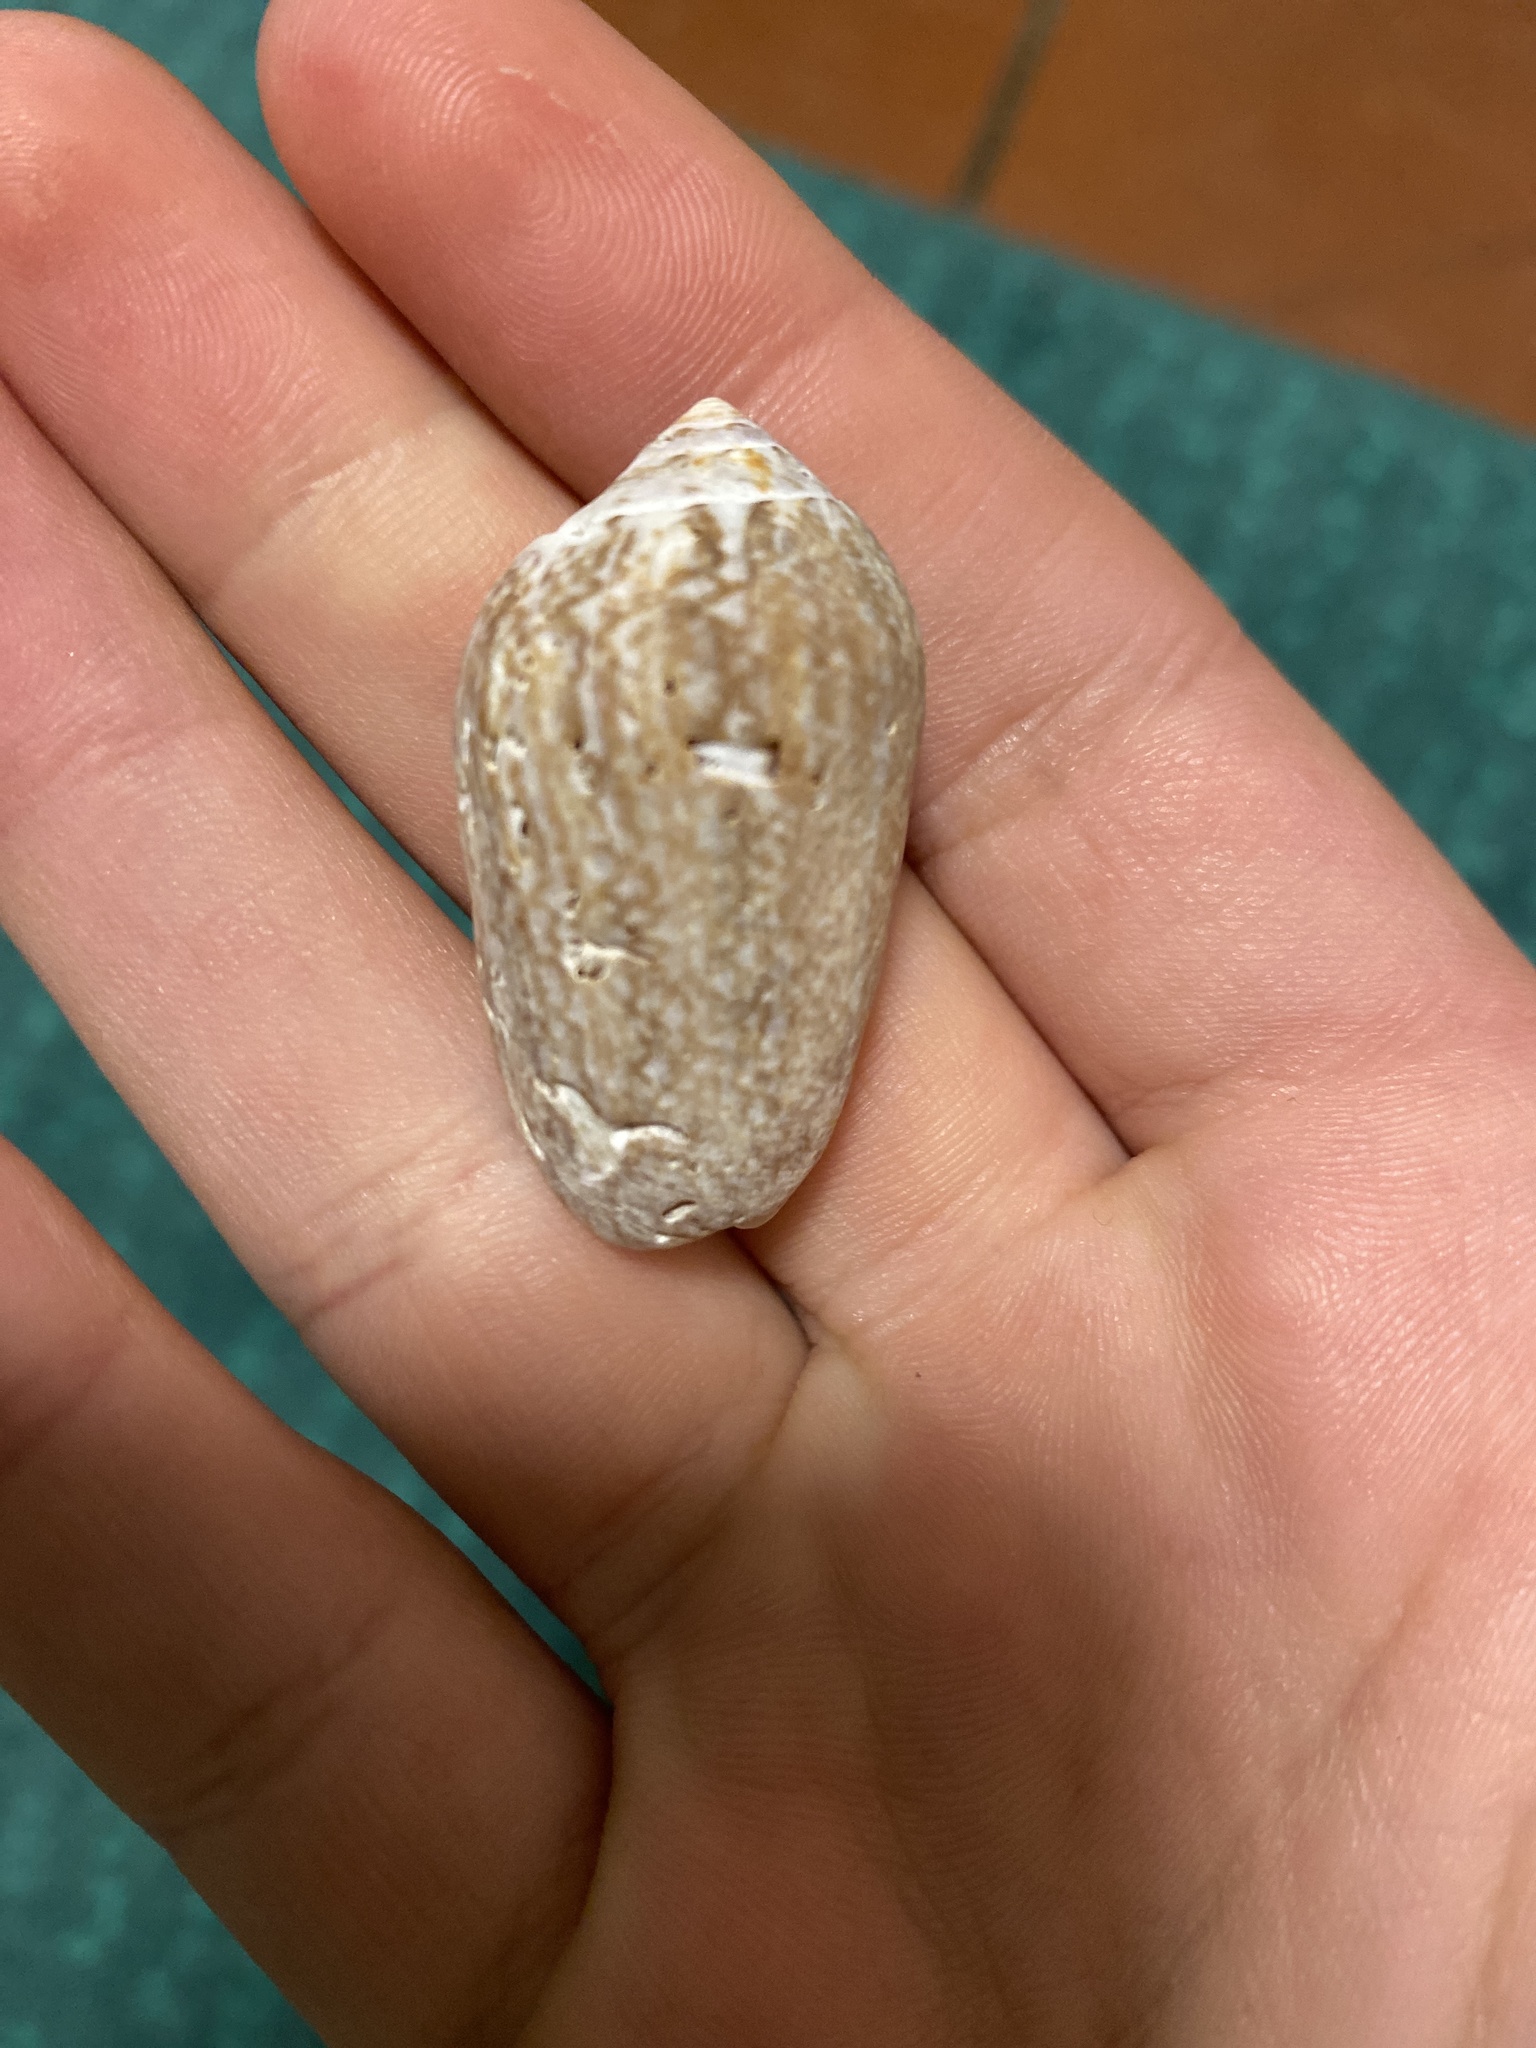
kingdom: Animalia
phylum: Mollusca
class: Gastropoda
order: Neogastropoda
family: Olividae
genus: Oliva
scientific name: Oliva polpasta
